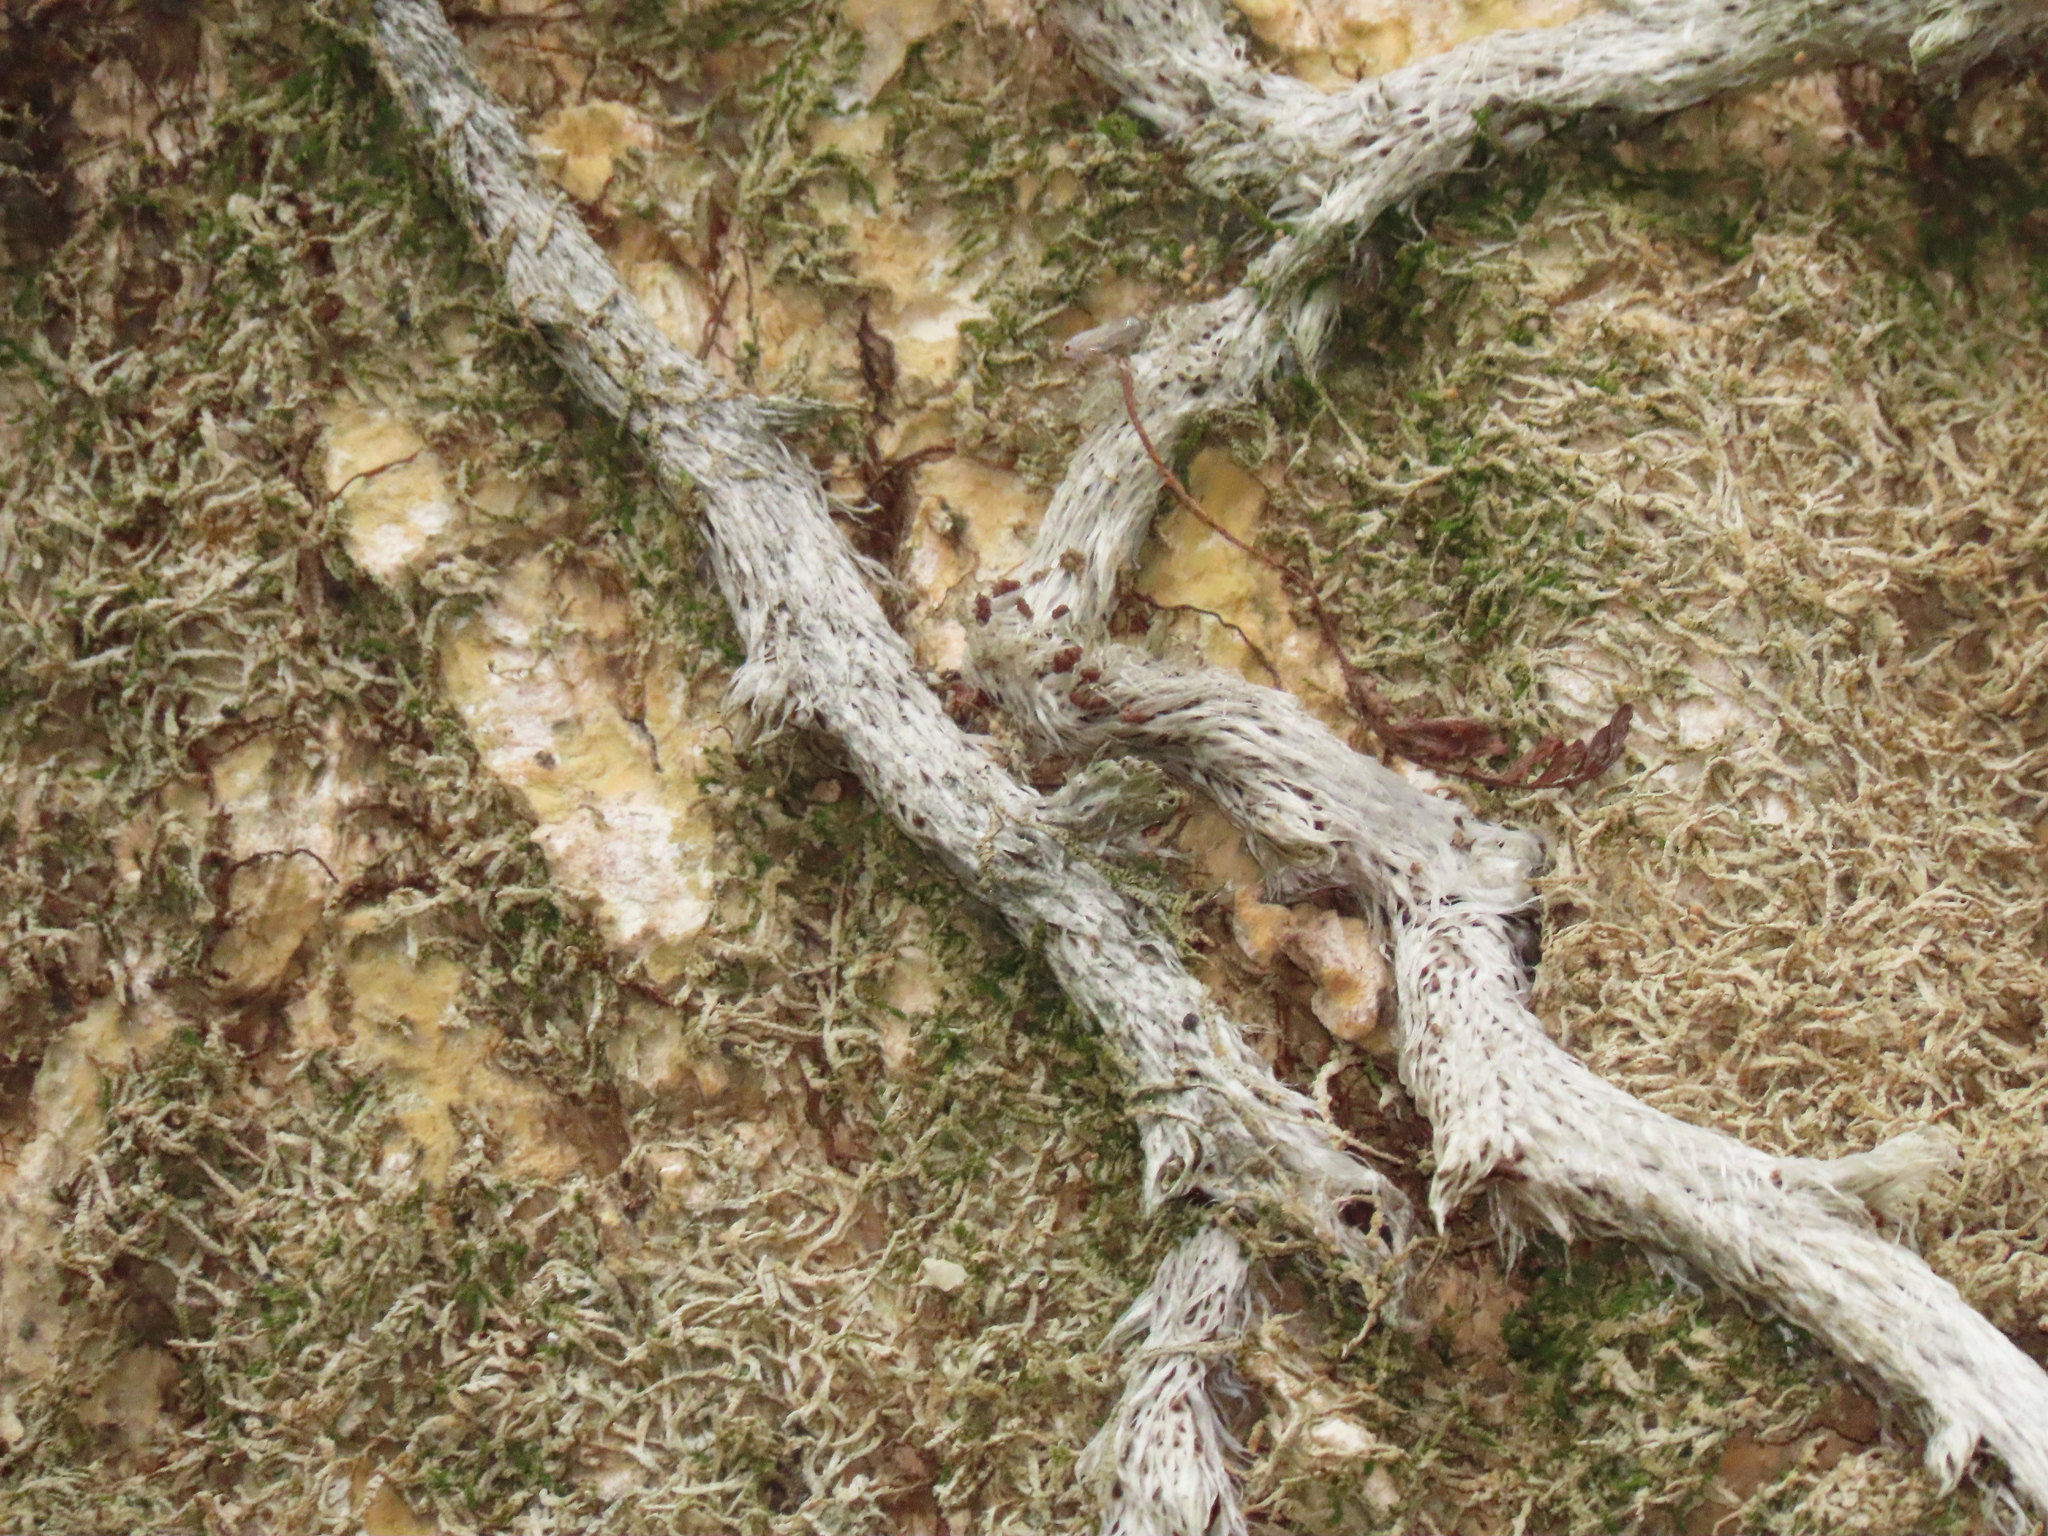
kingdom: Plantae
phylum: Tracheophyta
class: Polypodiopsida
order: Polypodiales
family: Davalliaceae
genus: Davallia
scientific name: Davallia griffithiana
